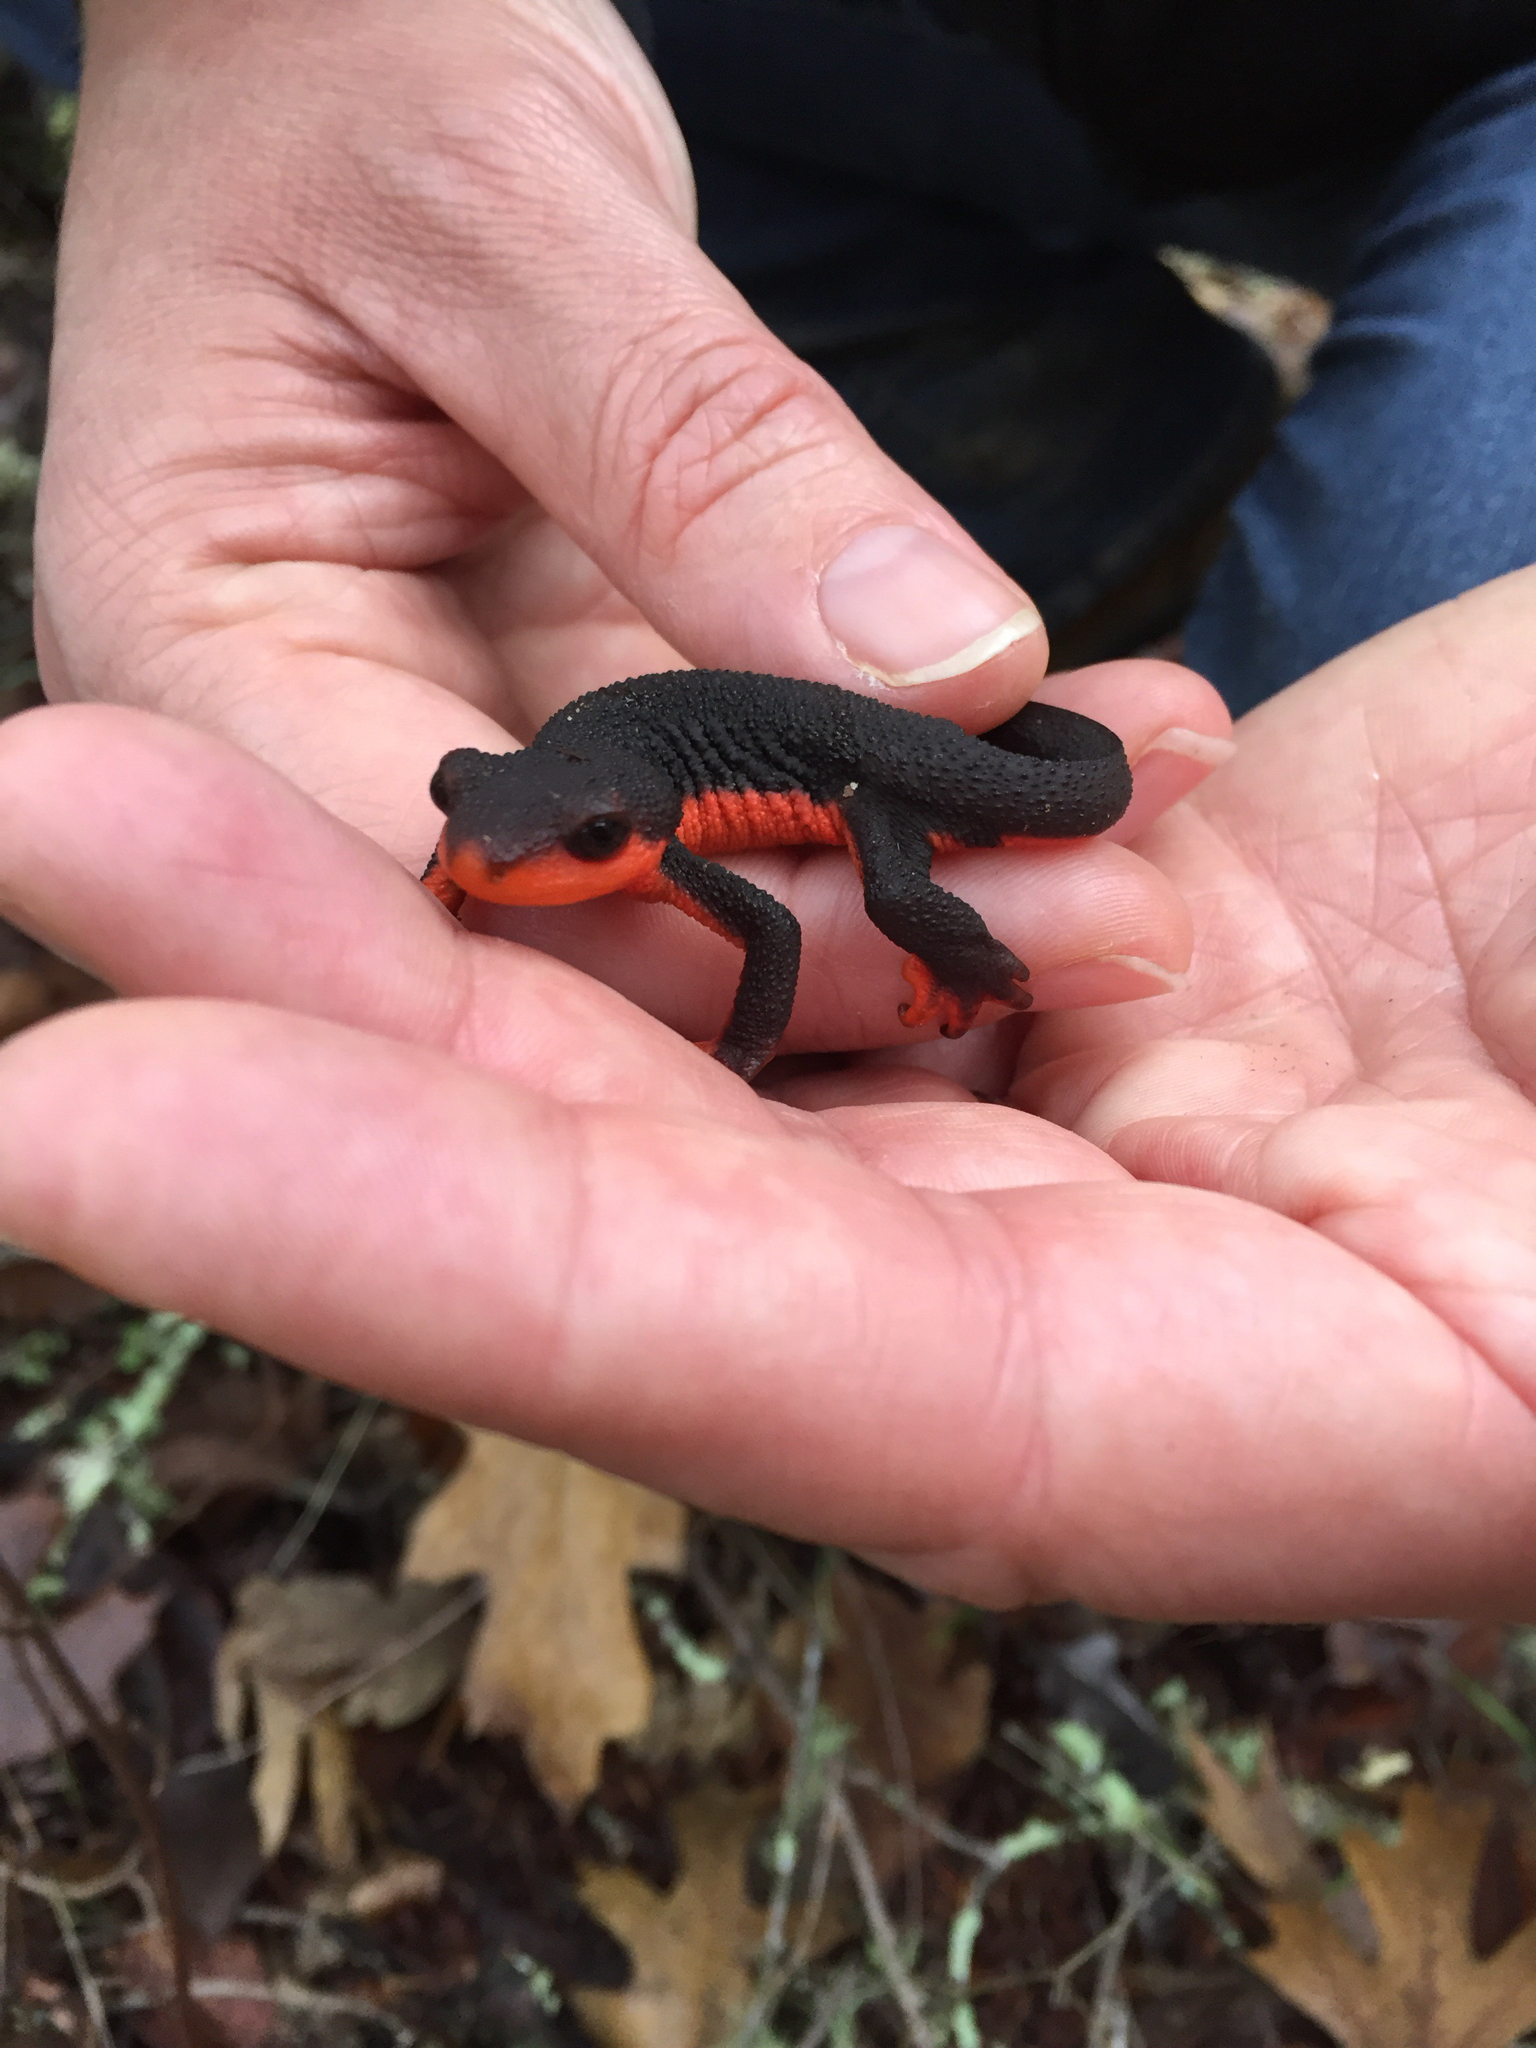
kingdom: Animalia
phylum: Chordata
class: Amphibia
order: Caudata
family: Salamandridae
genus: Taricha
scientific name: Taricha rivularis
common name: Red-bellied newt
